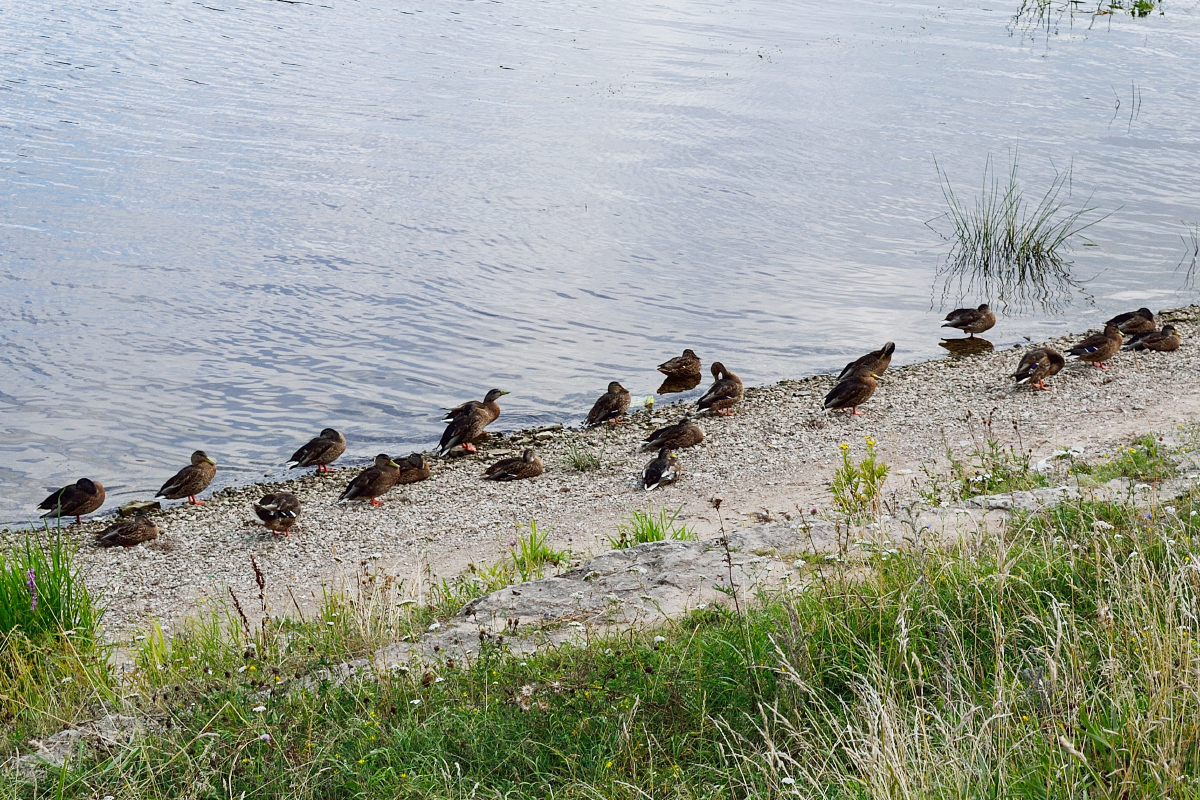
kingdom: Animalia
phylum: Chordata
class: Aves
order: Anseriformes
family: Anatidae
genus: Anas
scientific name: Anas platyrhynchos
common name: Mallard
